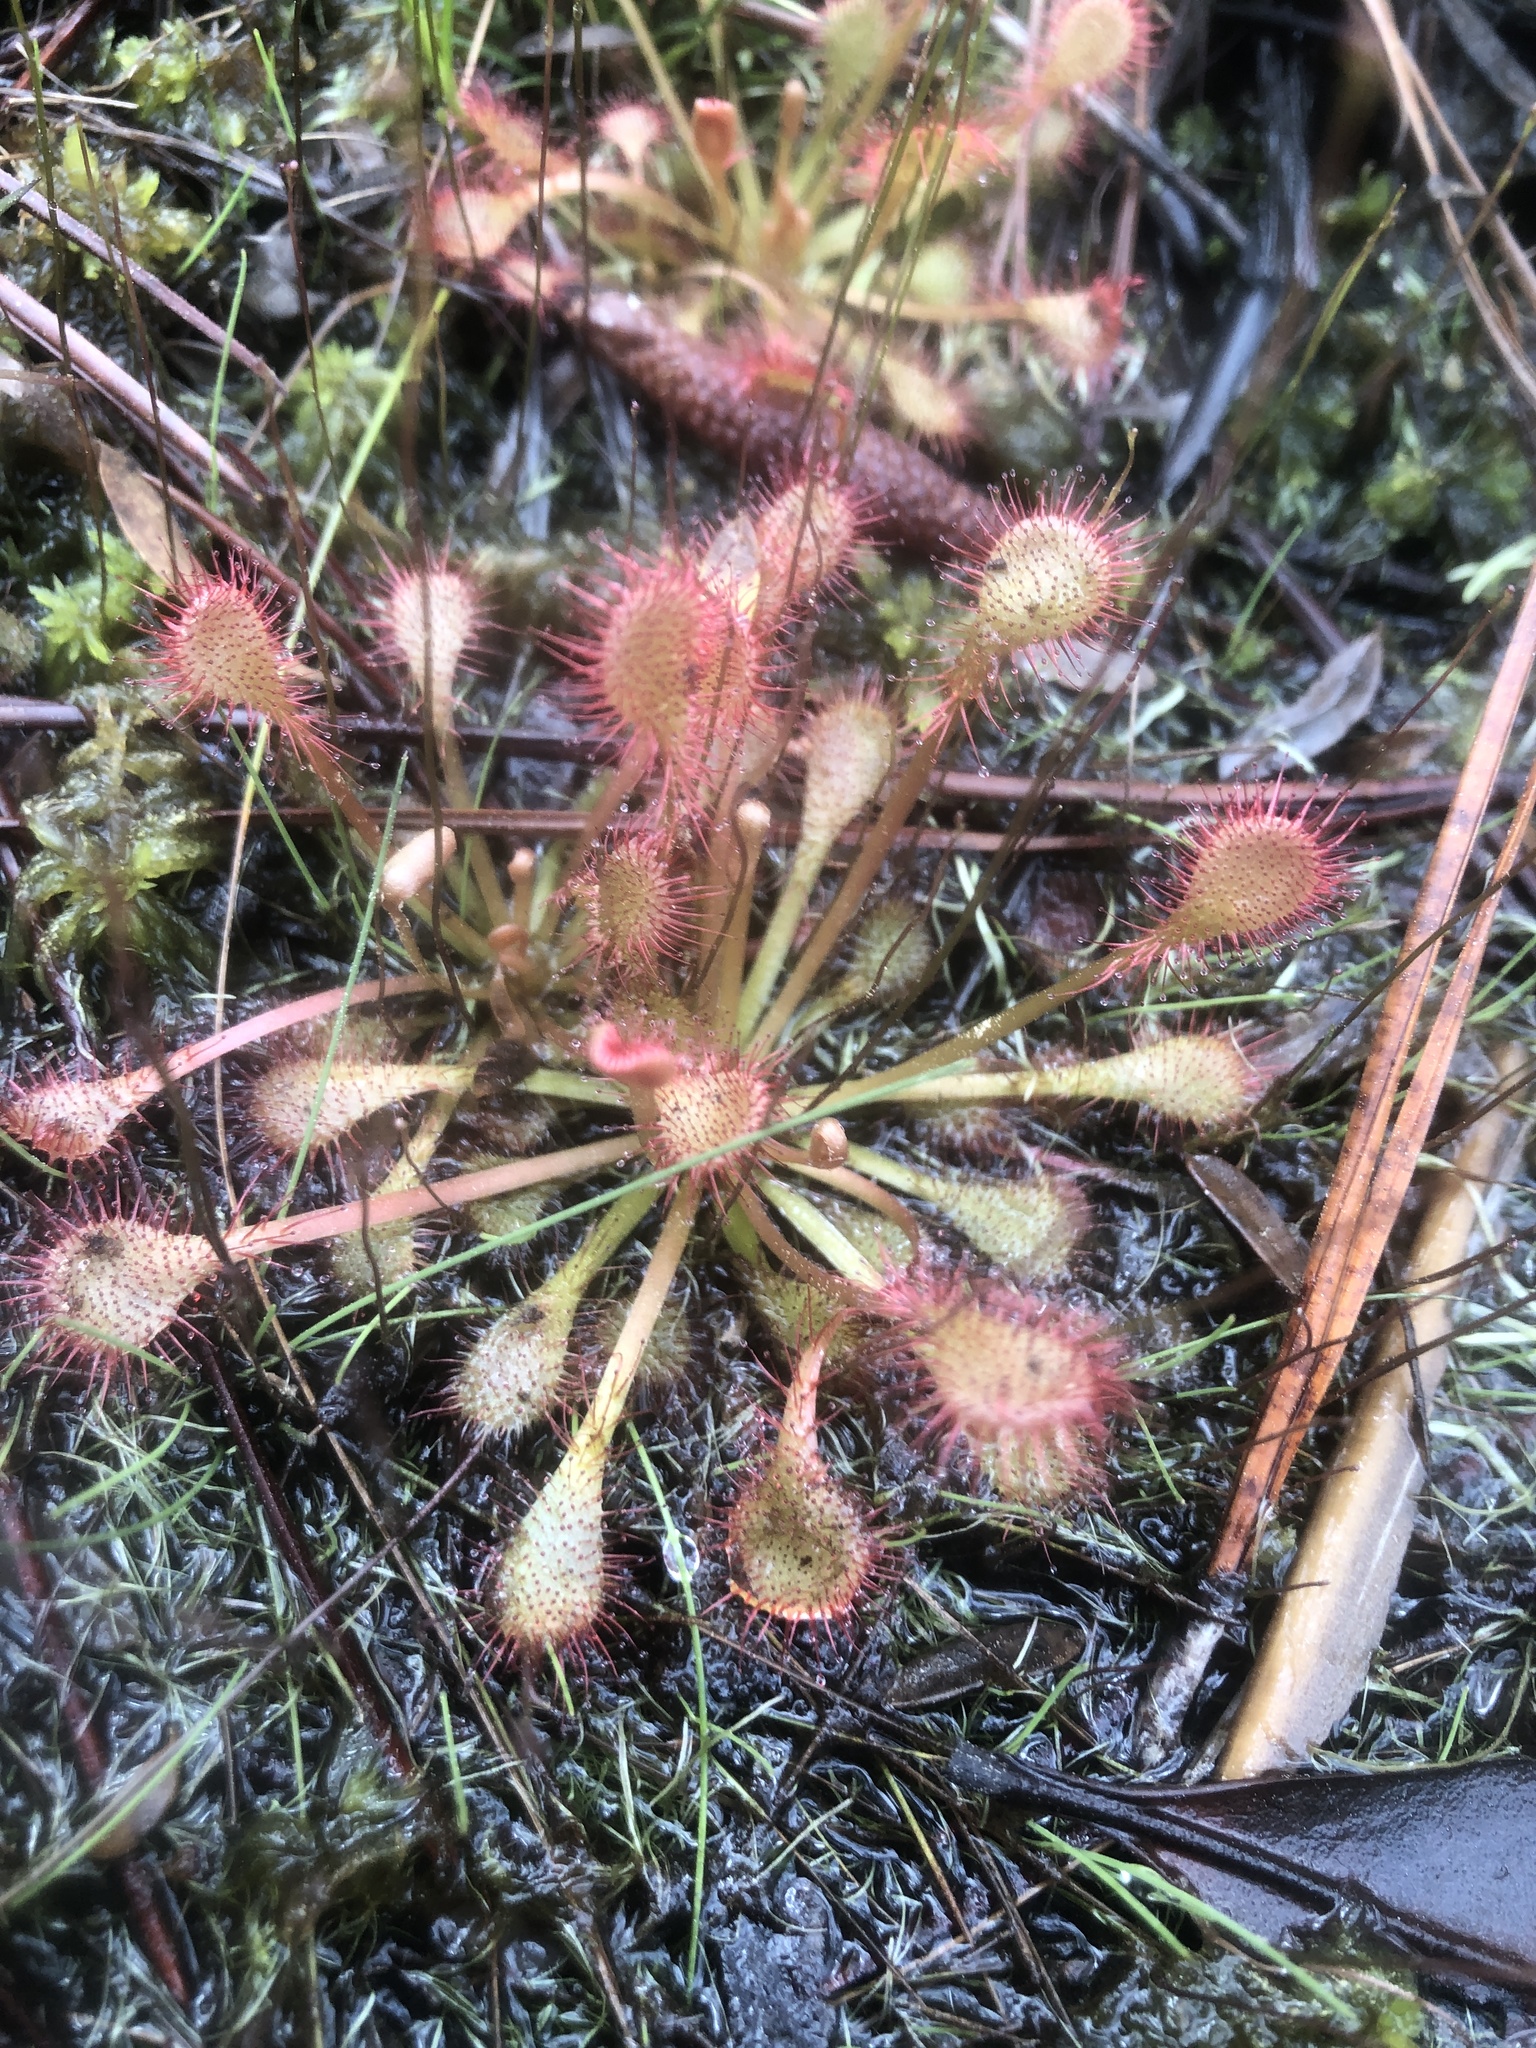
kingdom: Plantae
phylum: Tracheophyta
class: Magnoliopsida
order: Caryophyllales
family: Droseraceae
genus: Drosera
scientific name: Drosera capillaris
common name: Pink sundew
